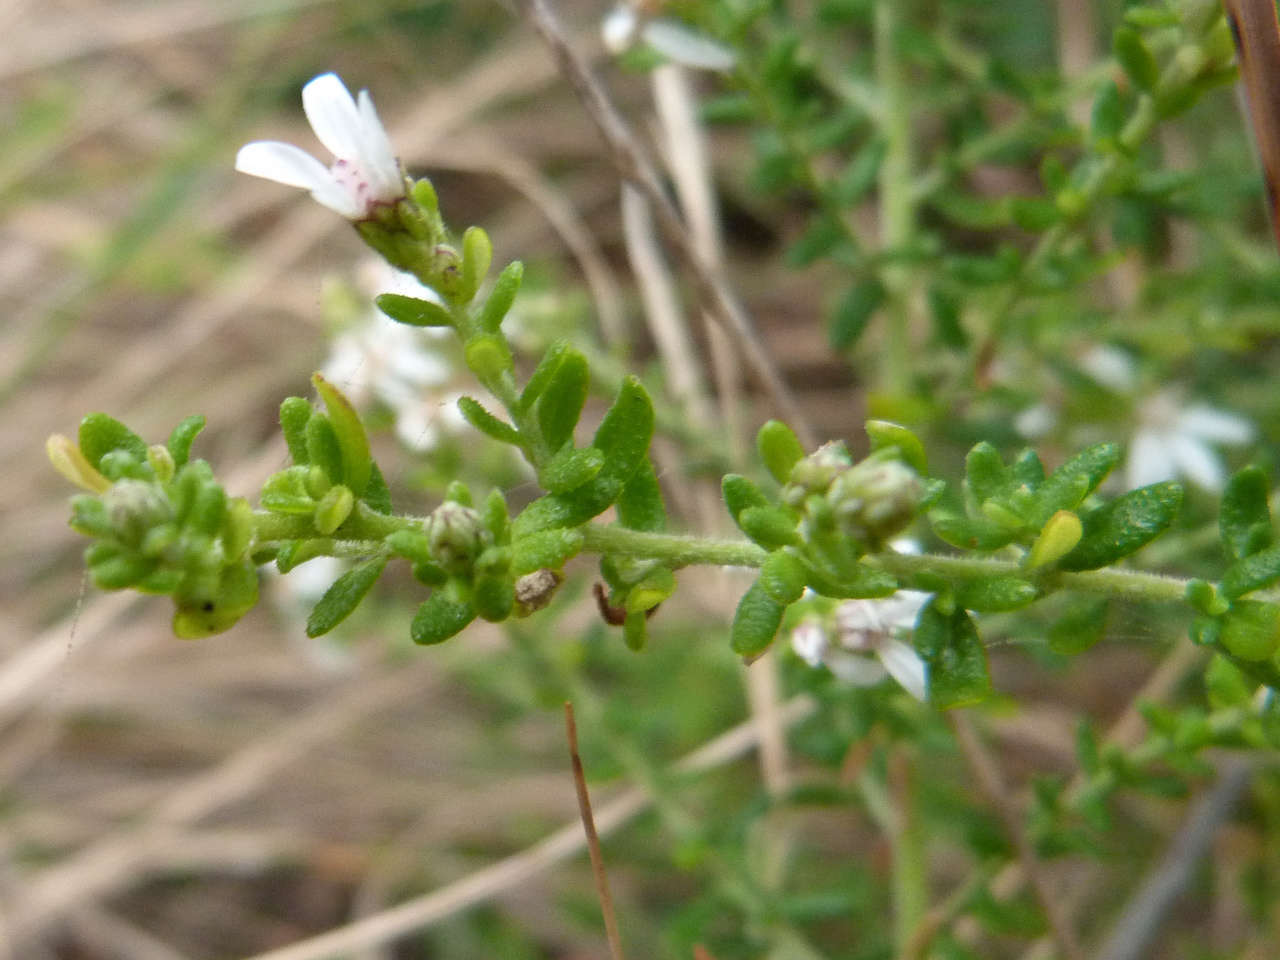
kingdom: Plantae
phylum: Tracheophyta
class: Magnoliopsida
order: Asterales
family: Asteraceae
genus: Olearia
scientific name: Olearia ramulosa
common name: Twiggy daisybush
